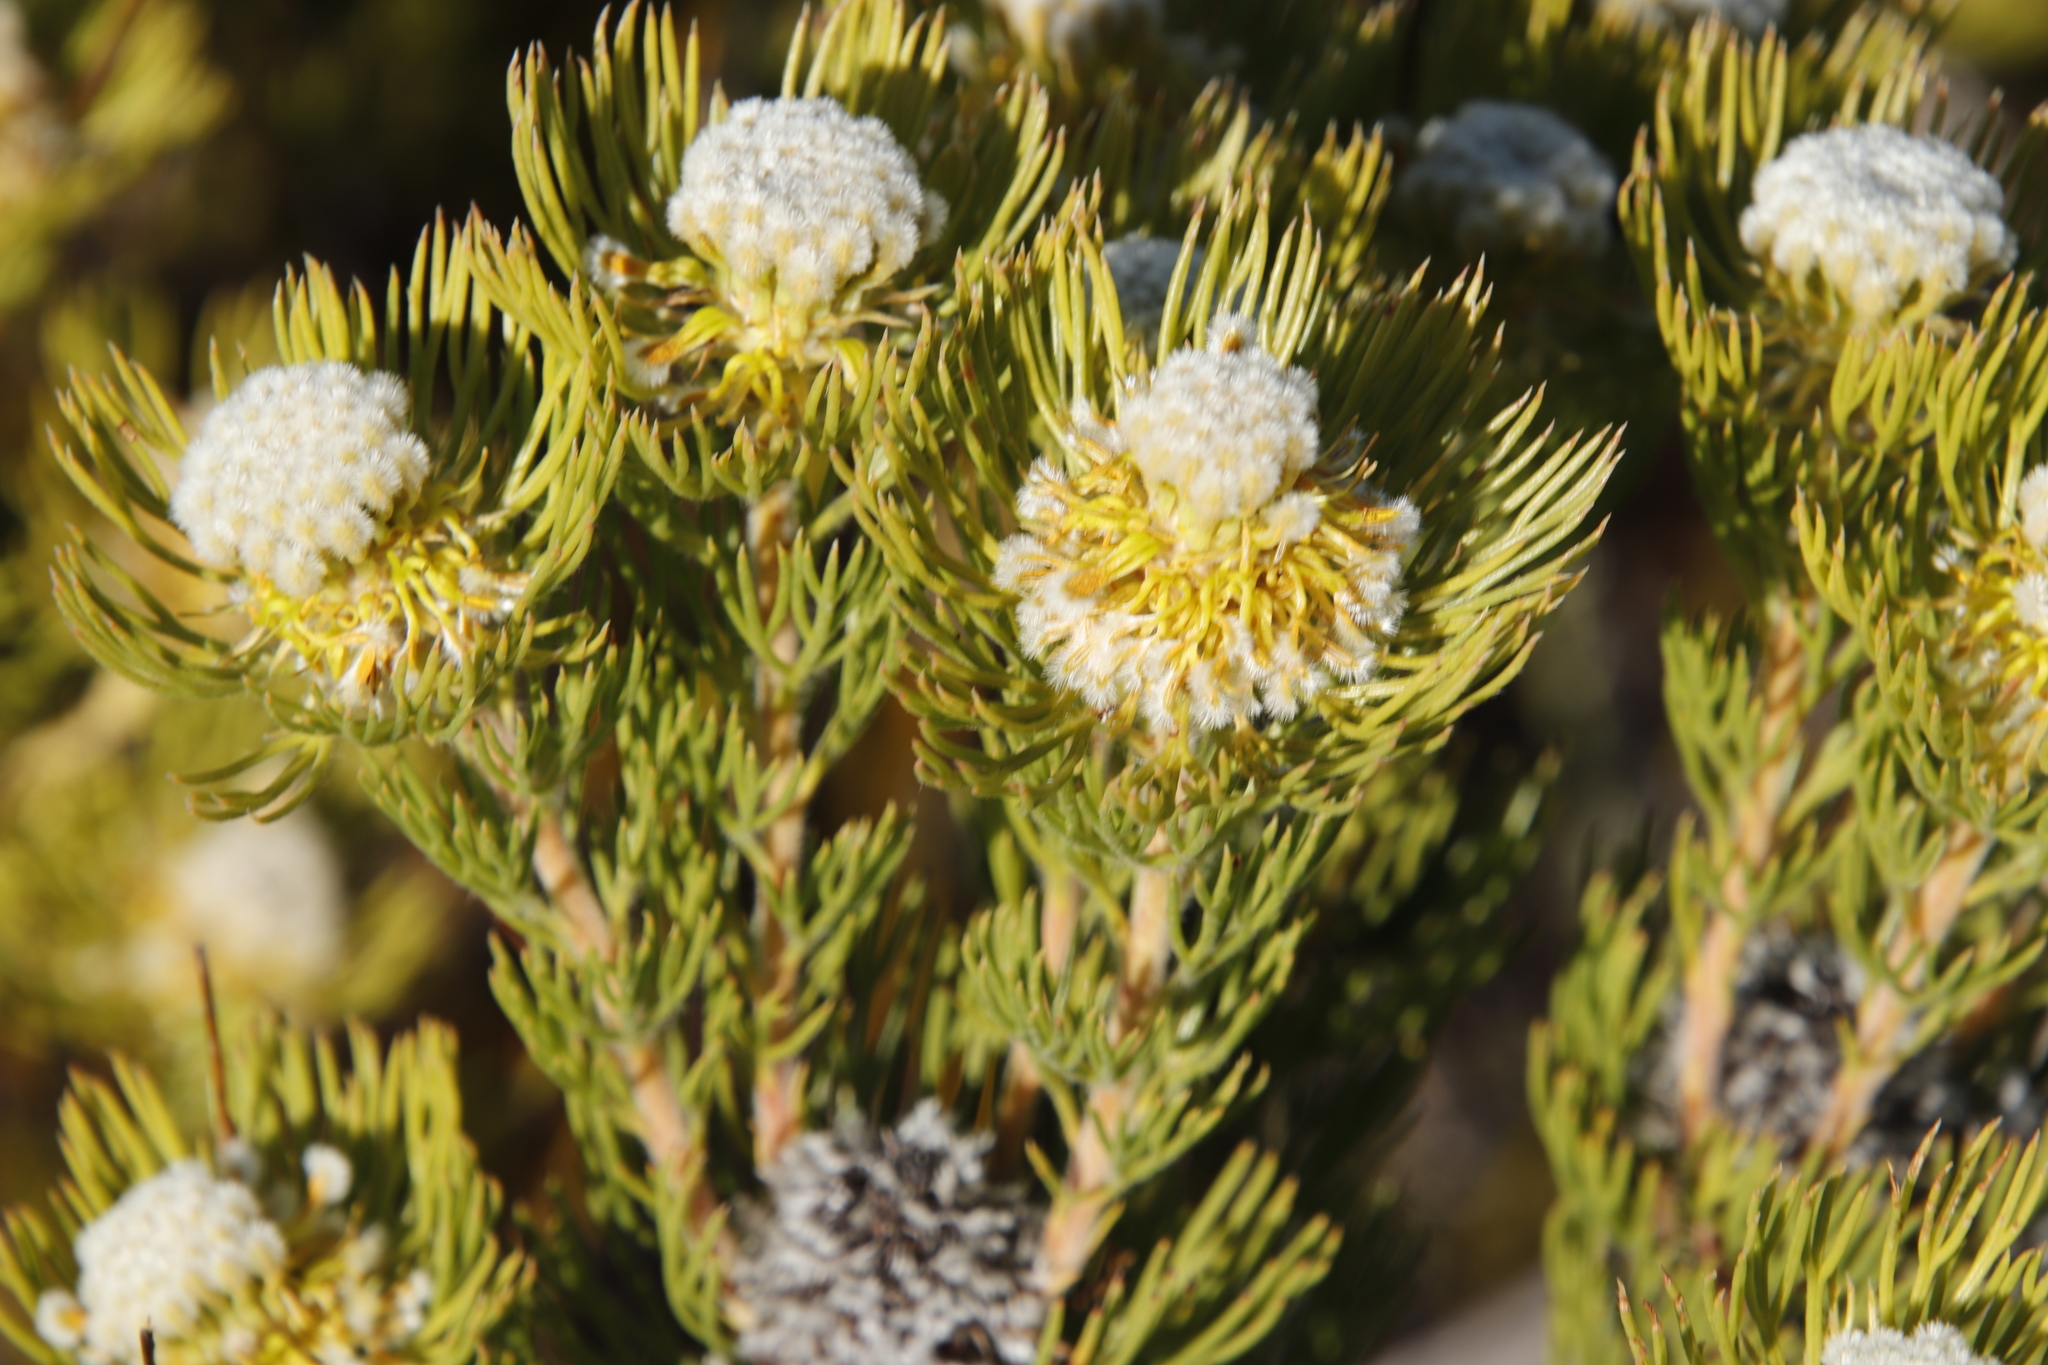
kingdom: Plantae
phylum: Tracheophyta
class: Magnoliopsida
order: Proteales
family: Proteaceae
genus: Serruria
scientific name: Serruria villosa
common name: Golden spiderhead
